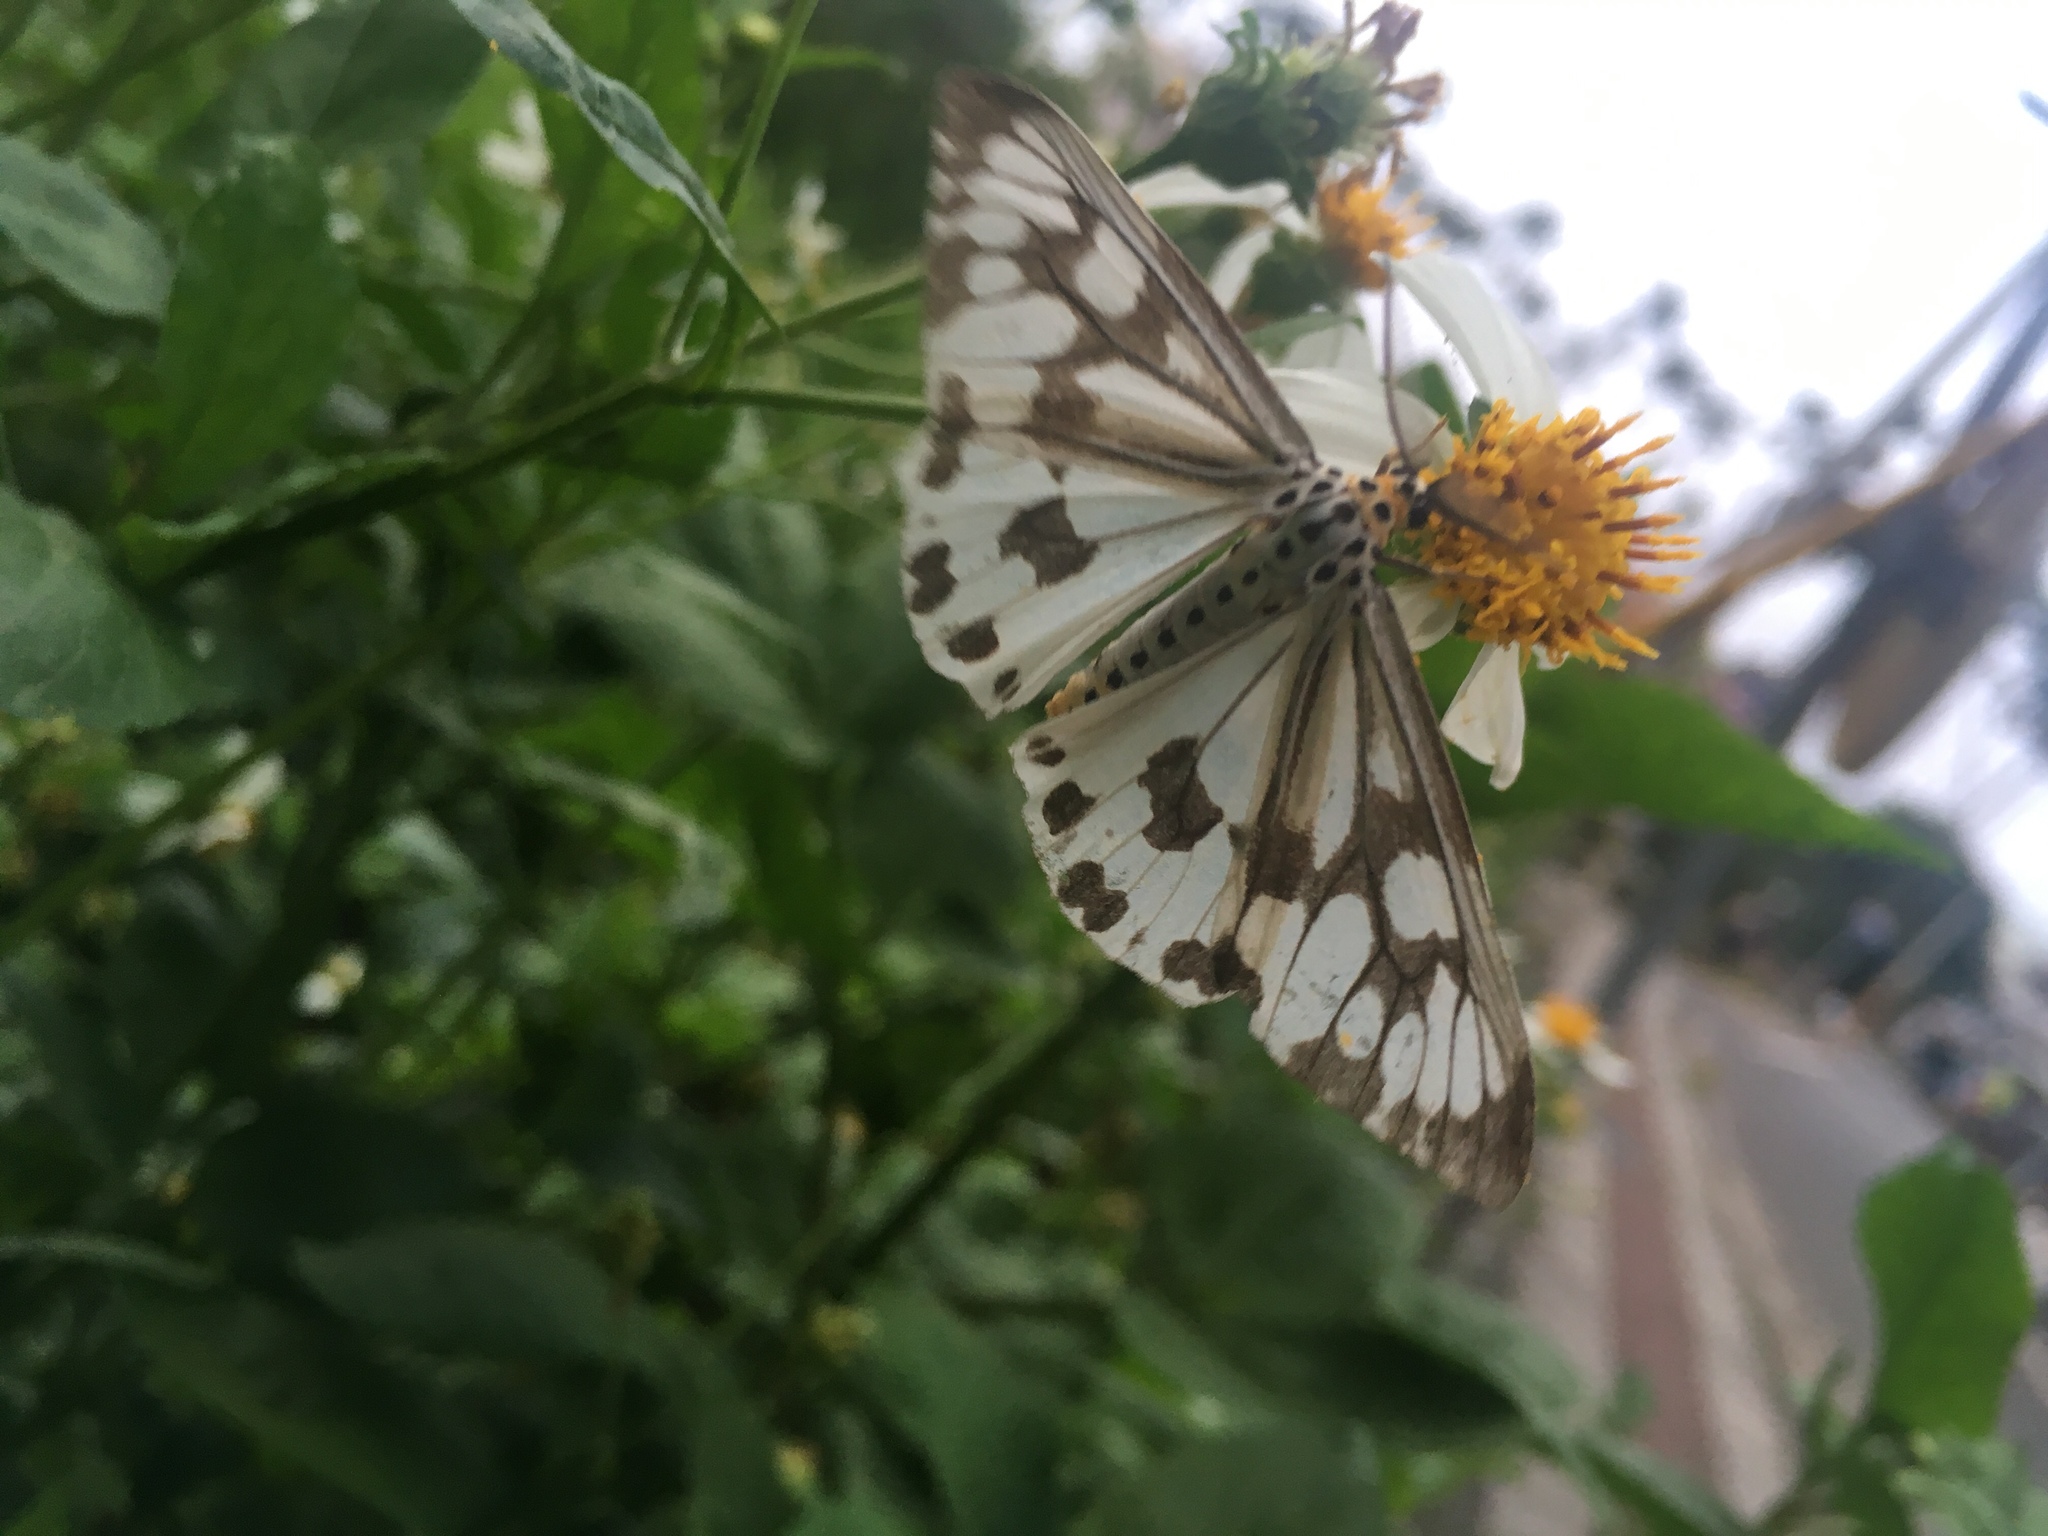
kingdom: Animalia
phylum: Arthropoda
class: Insecta
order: Lepidoptera
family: Erebidae
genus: Nyctemera
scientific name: Nyctemera adversata
